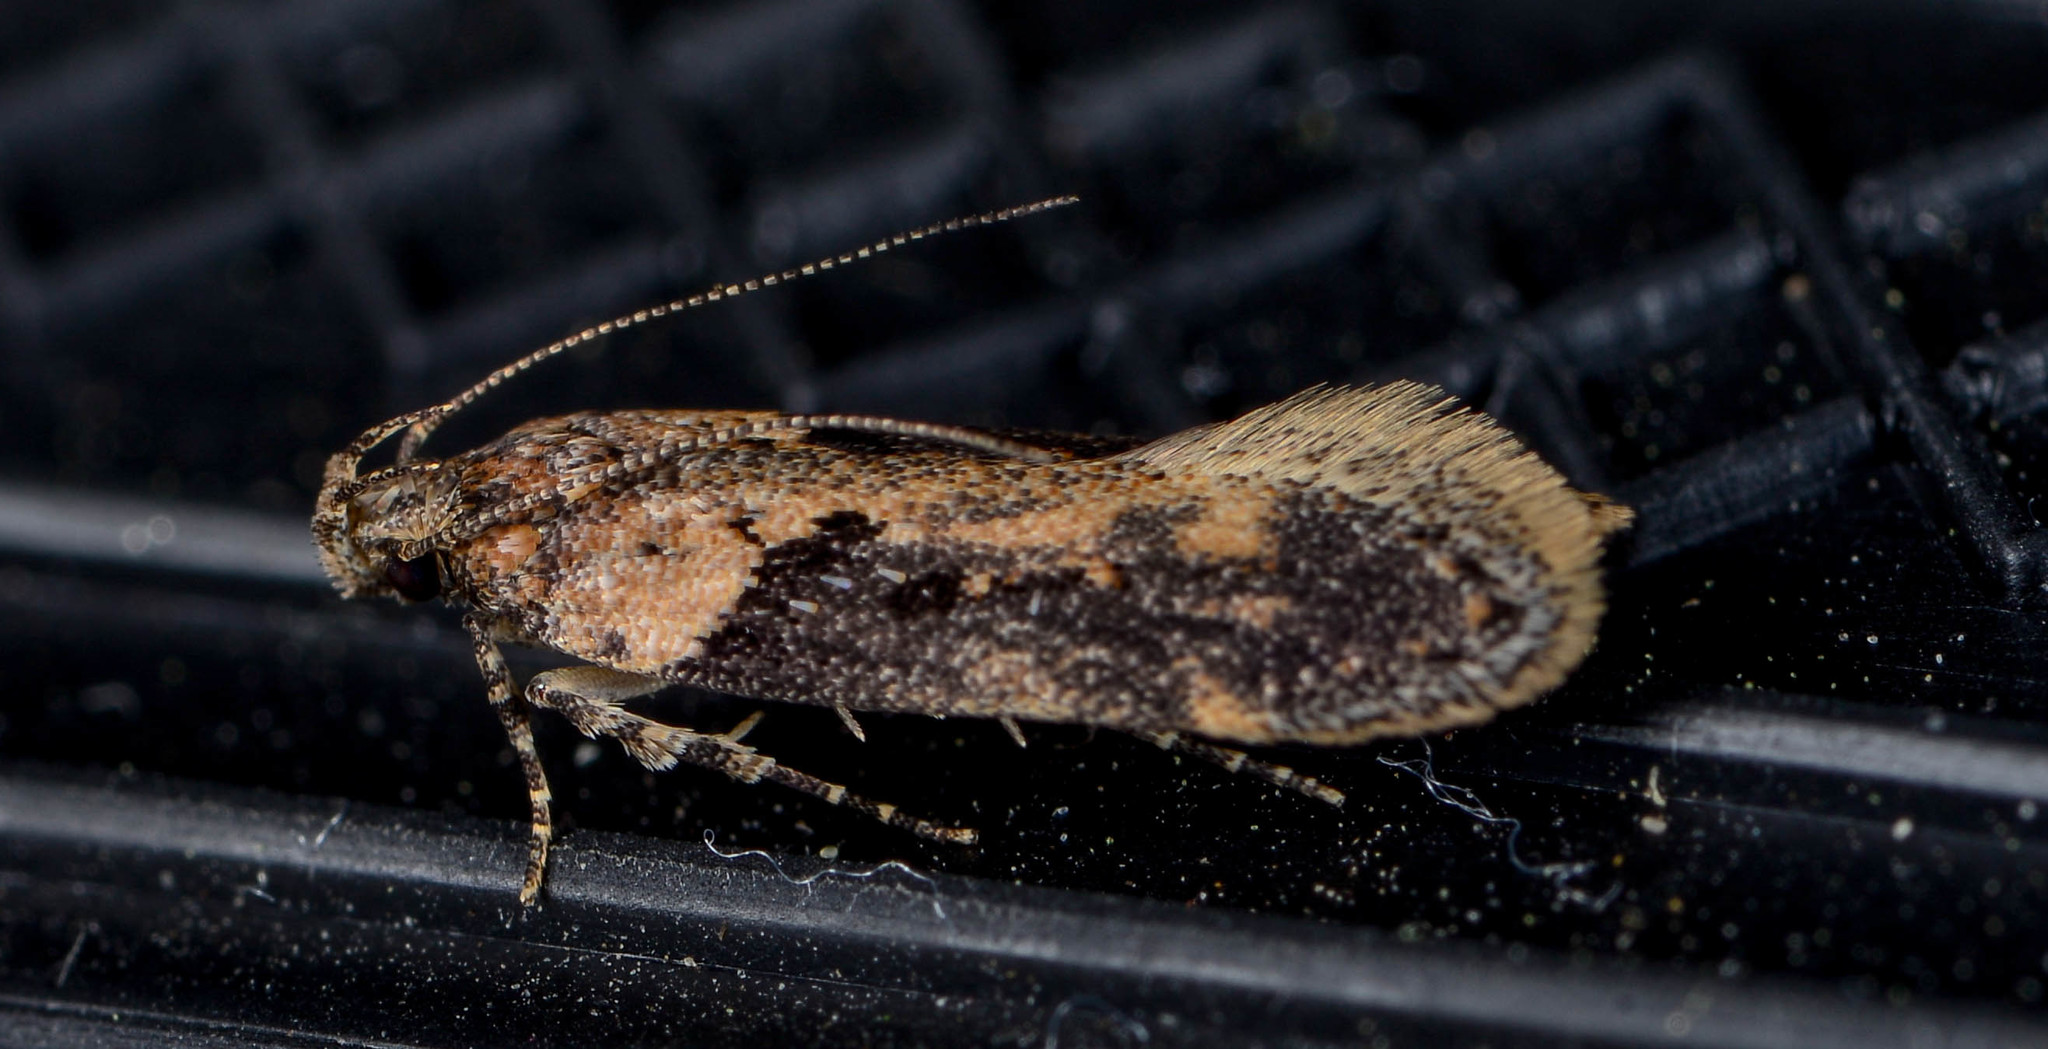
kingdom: Animalia
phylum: Arthropoda
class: Insecta
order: Lepidoptera
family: Gelechiidae
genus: Chionodes
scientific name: Chionodes mediofuscella
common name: Black-smudged chionodes moth
